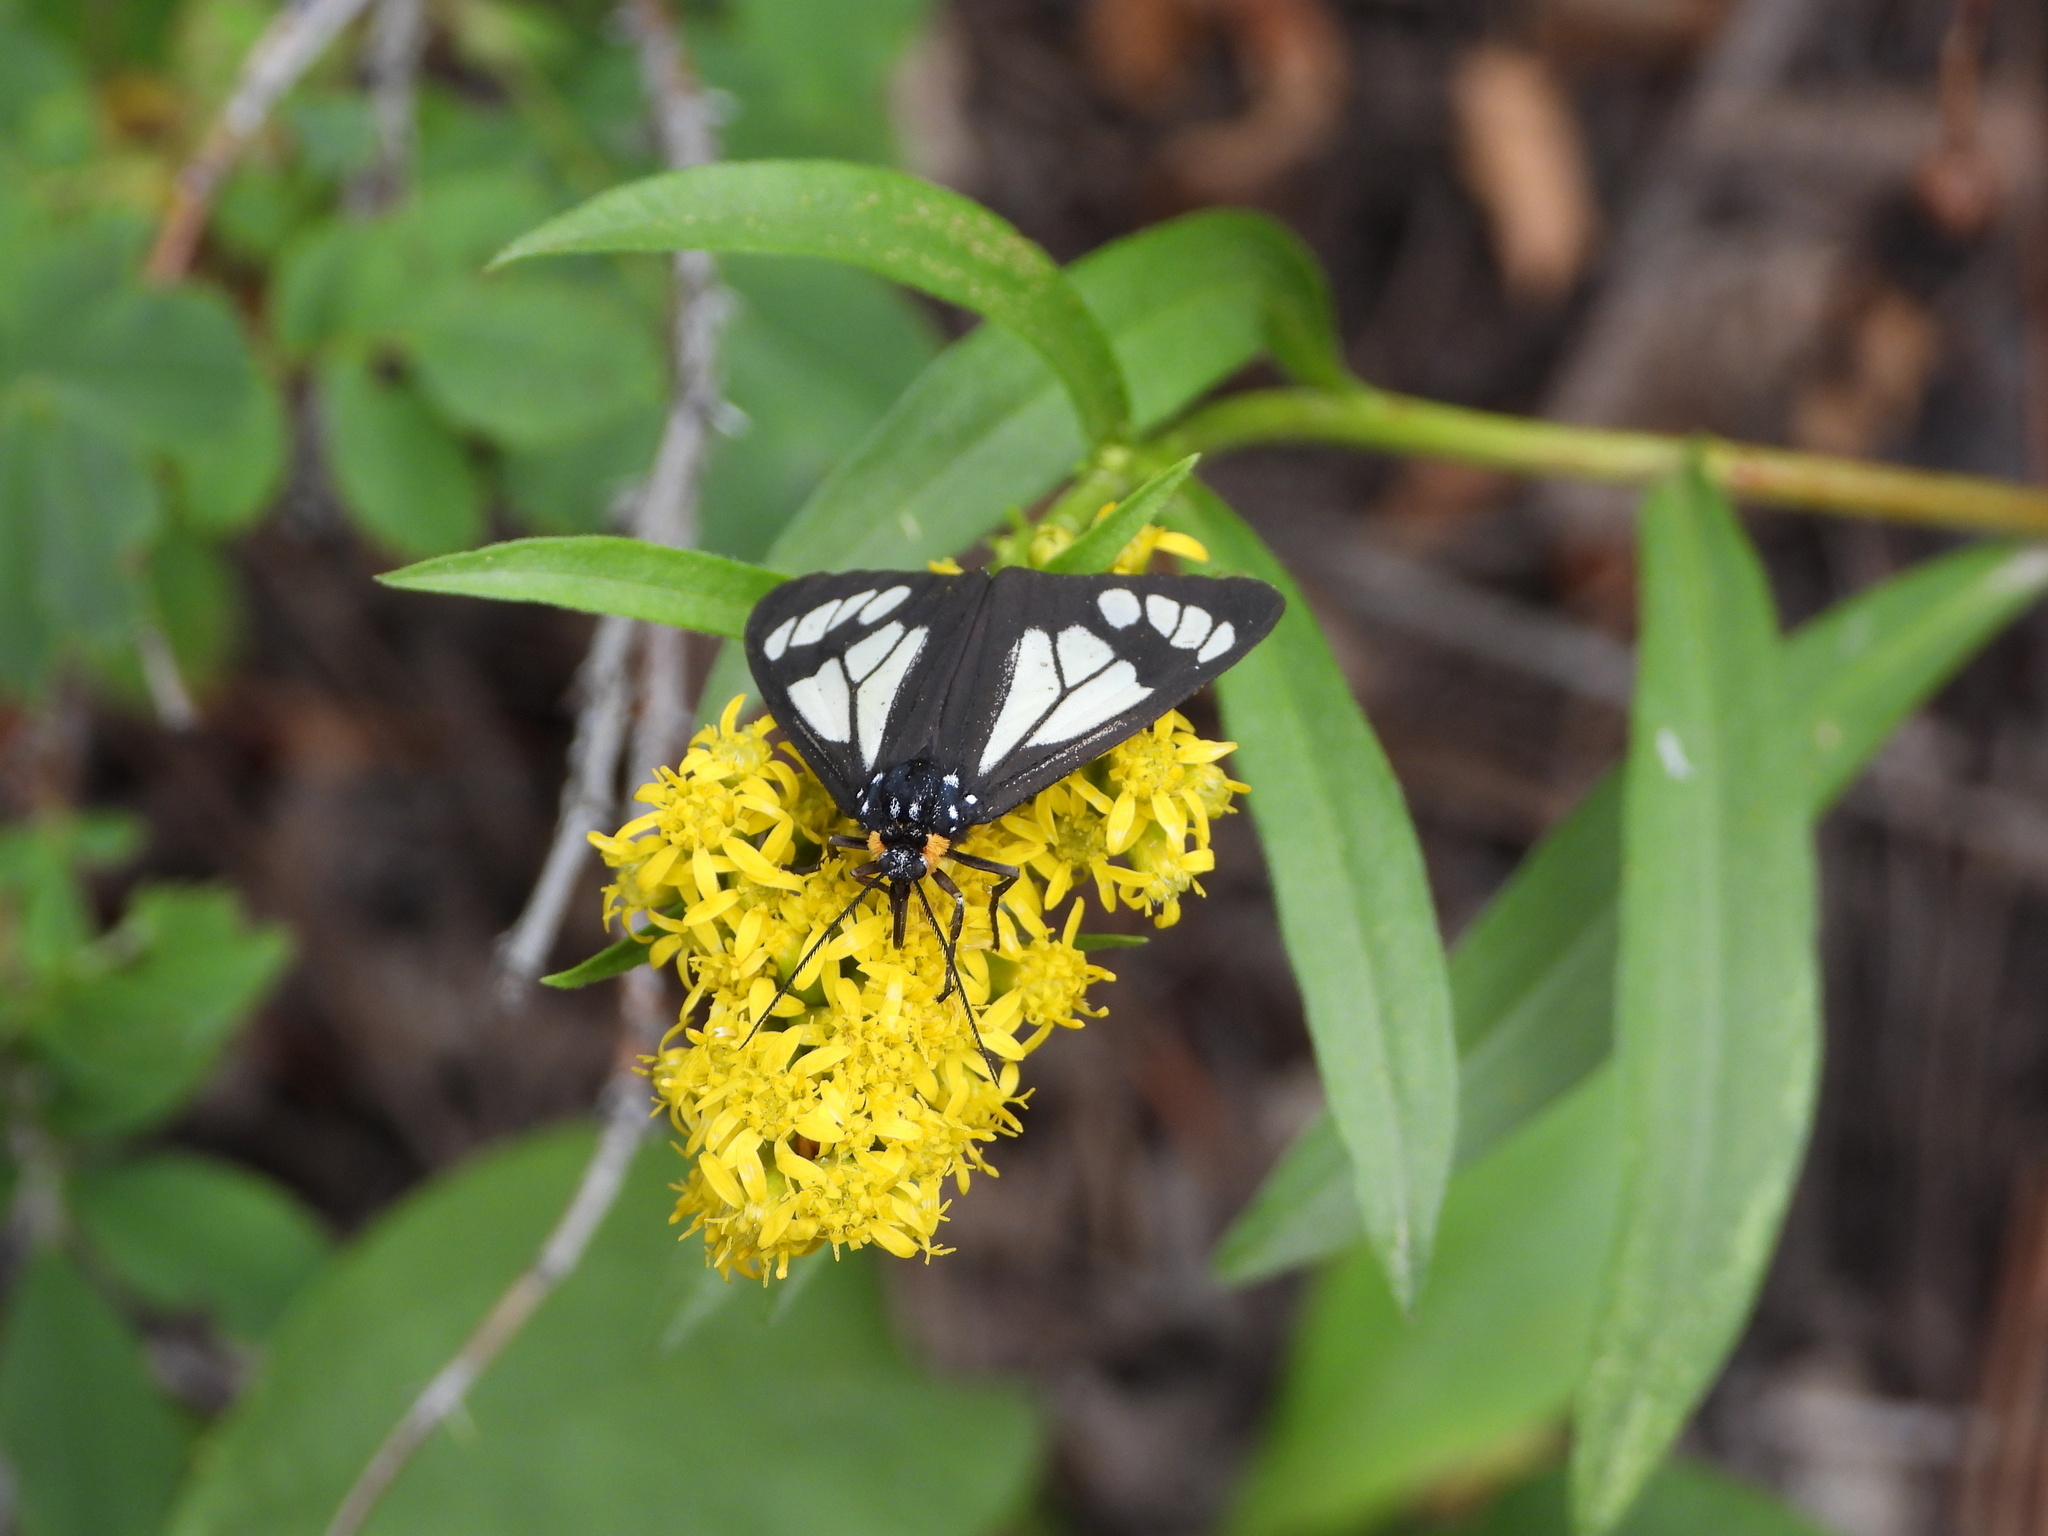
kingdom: Animalia
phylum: Arthropoda
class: Insecta
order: Lepidoptera
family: Erebidae
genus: Gnophaela
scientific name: Gnophaela vermiculata
